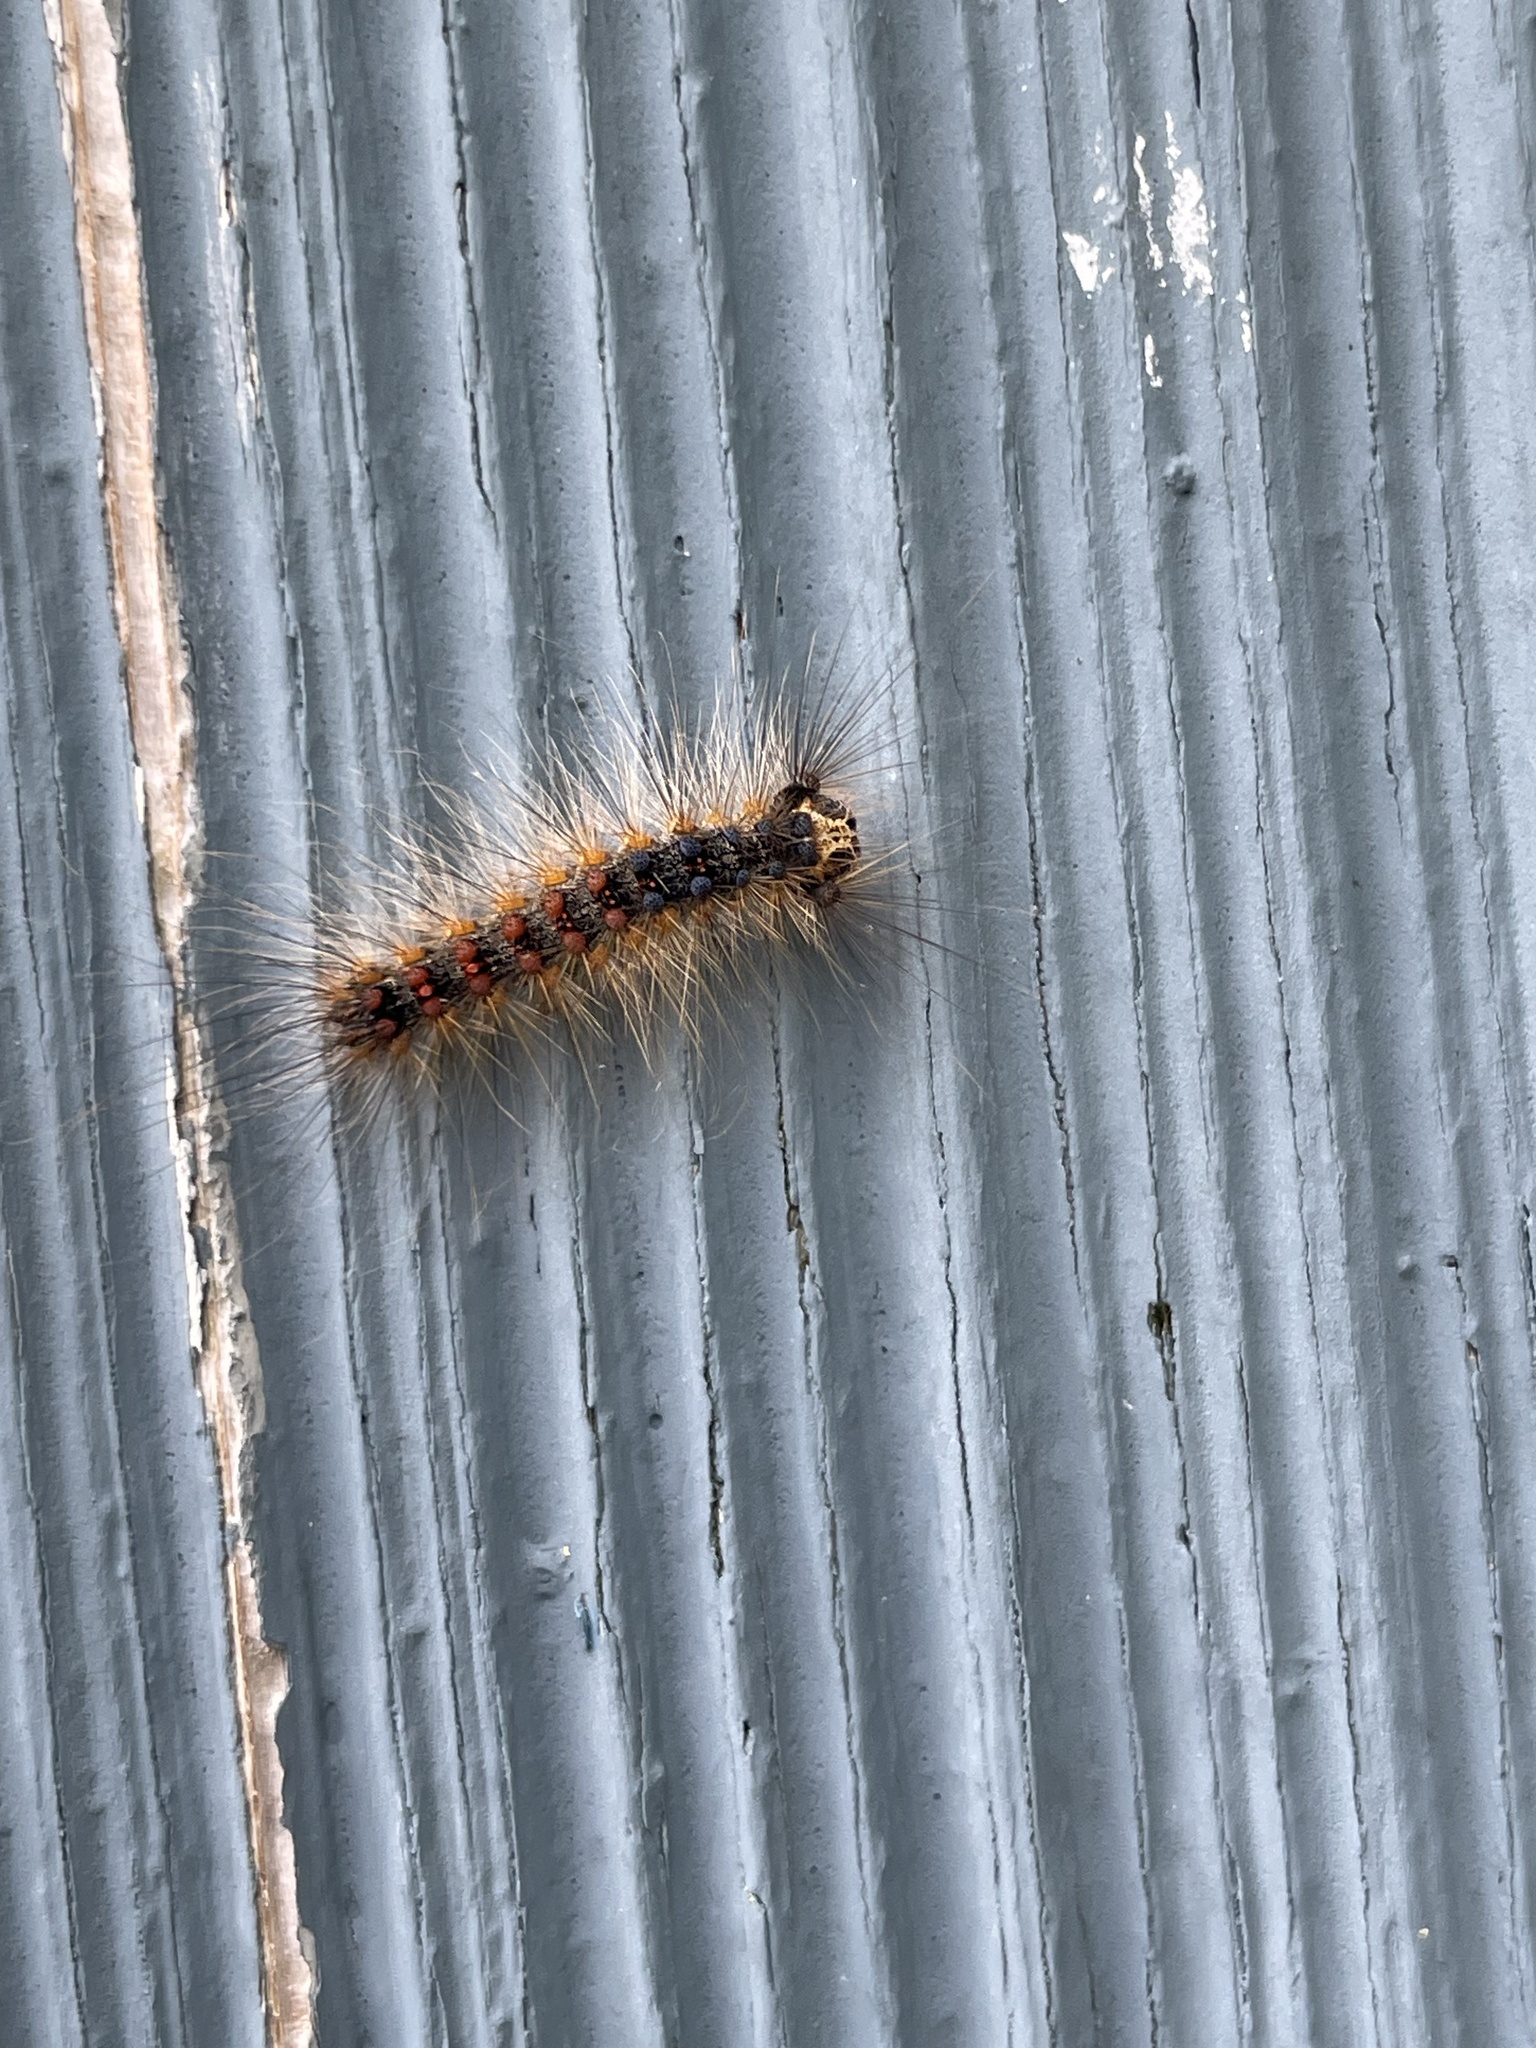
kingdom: Animalia
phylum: Arthropoda
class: Insecta
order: Lepidoptera
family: Erebidae
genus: Lymantria
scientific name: Lymantria dispar
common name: Gypsy moth
